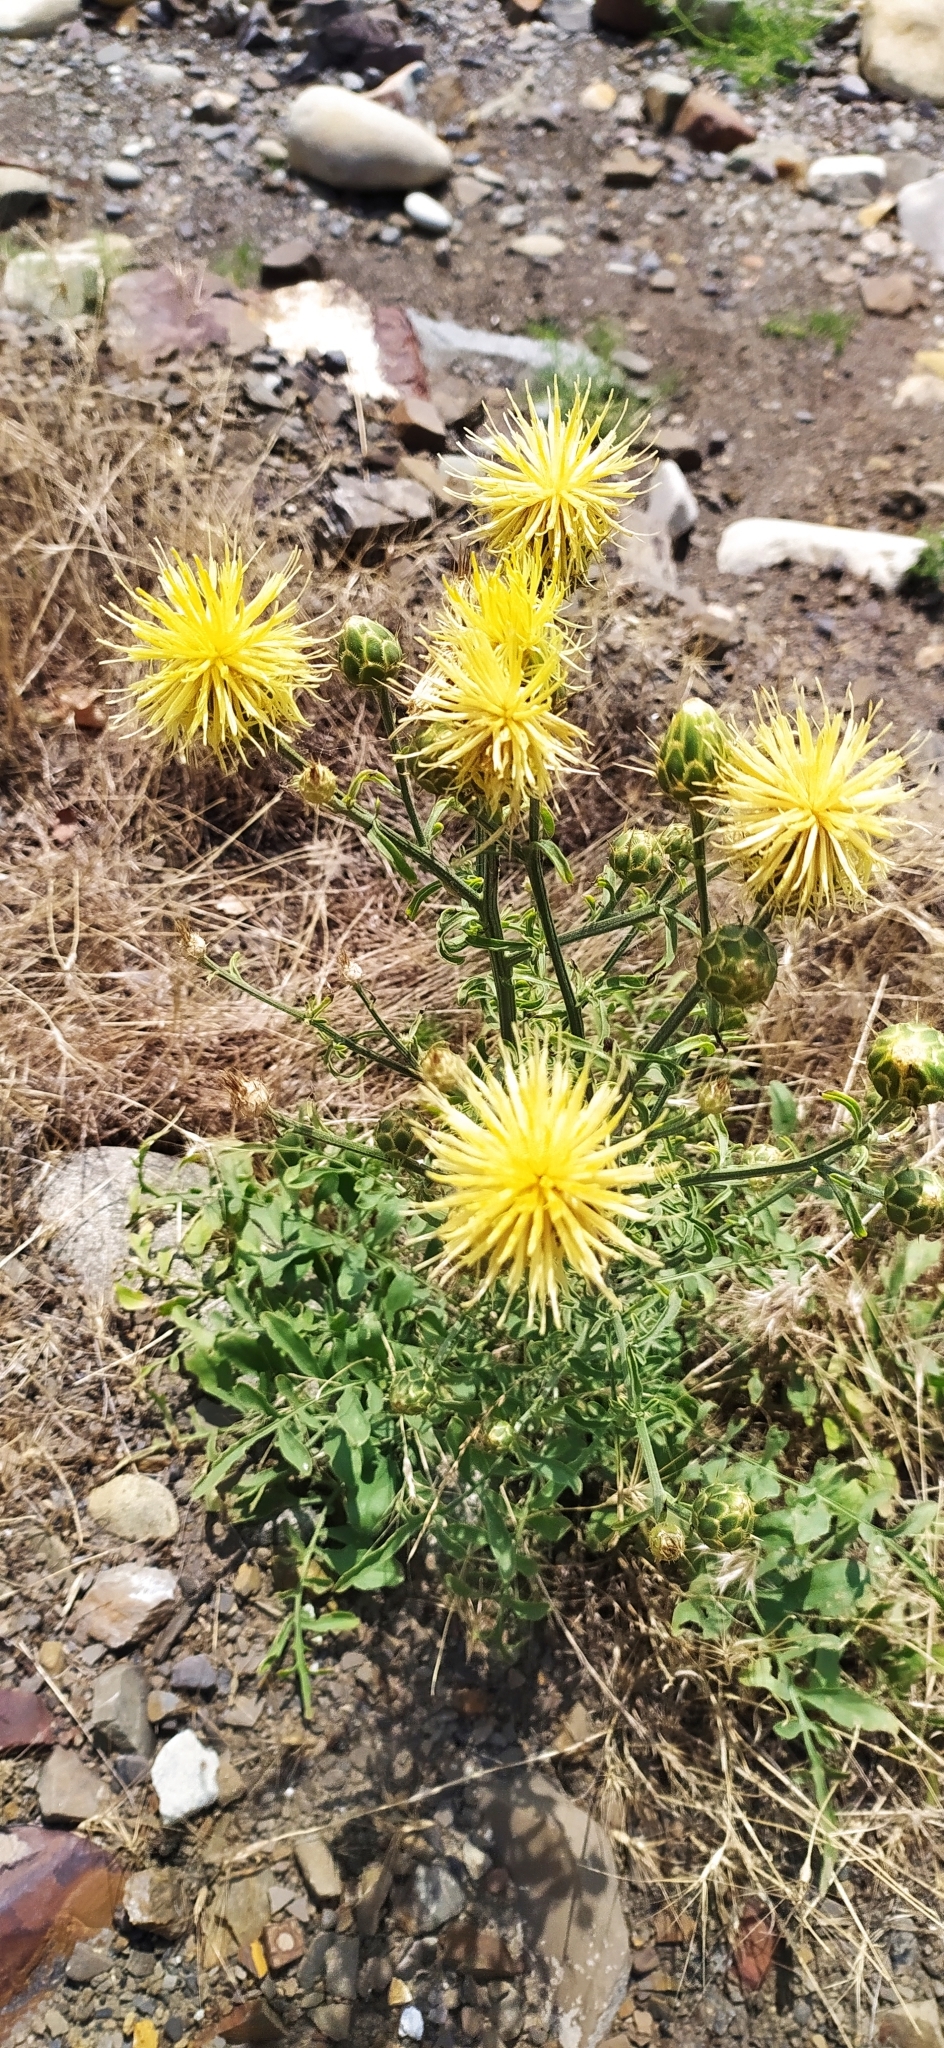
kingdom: Plantae
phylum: Tracheophyta
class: Magnoliopsida
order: Asterales
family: Asteraceae
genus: Centaurea
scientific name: Centaurea salonitana
